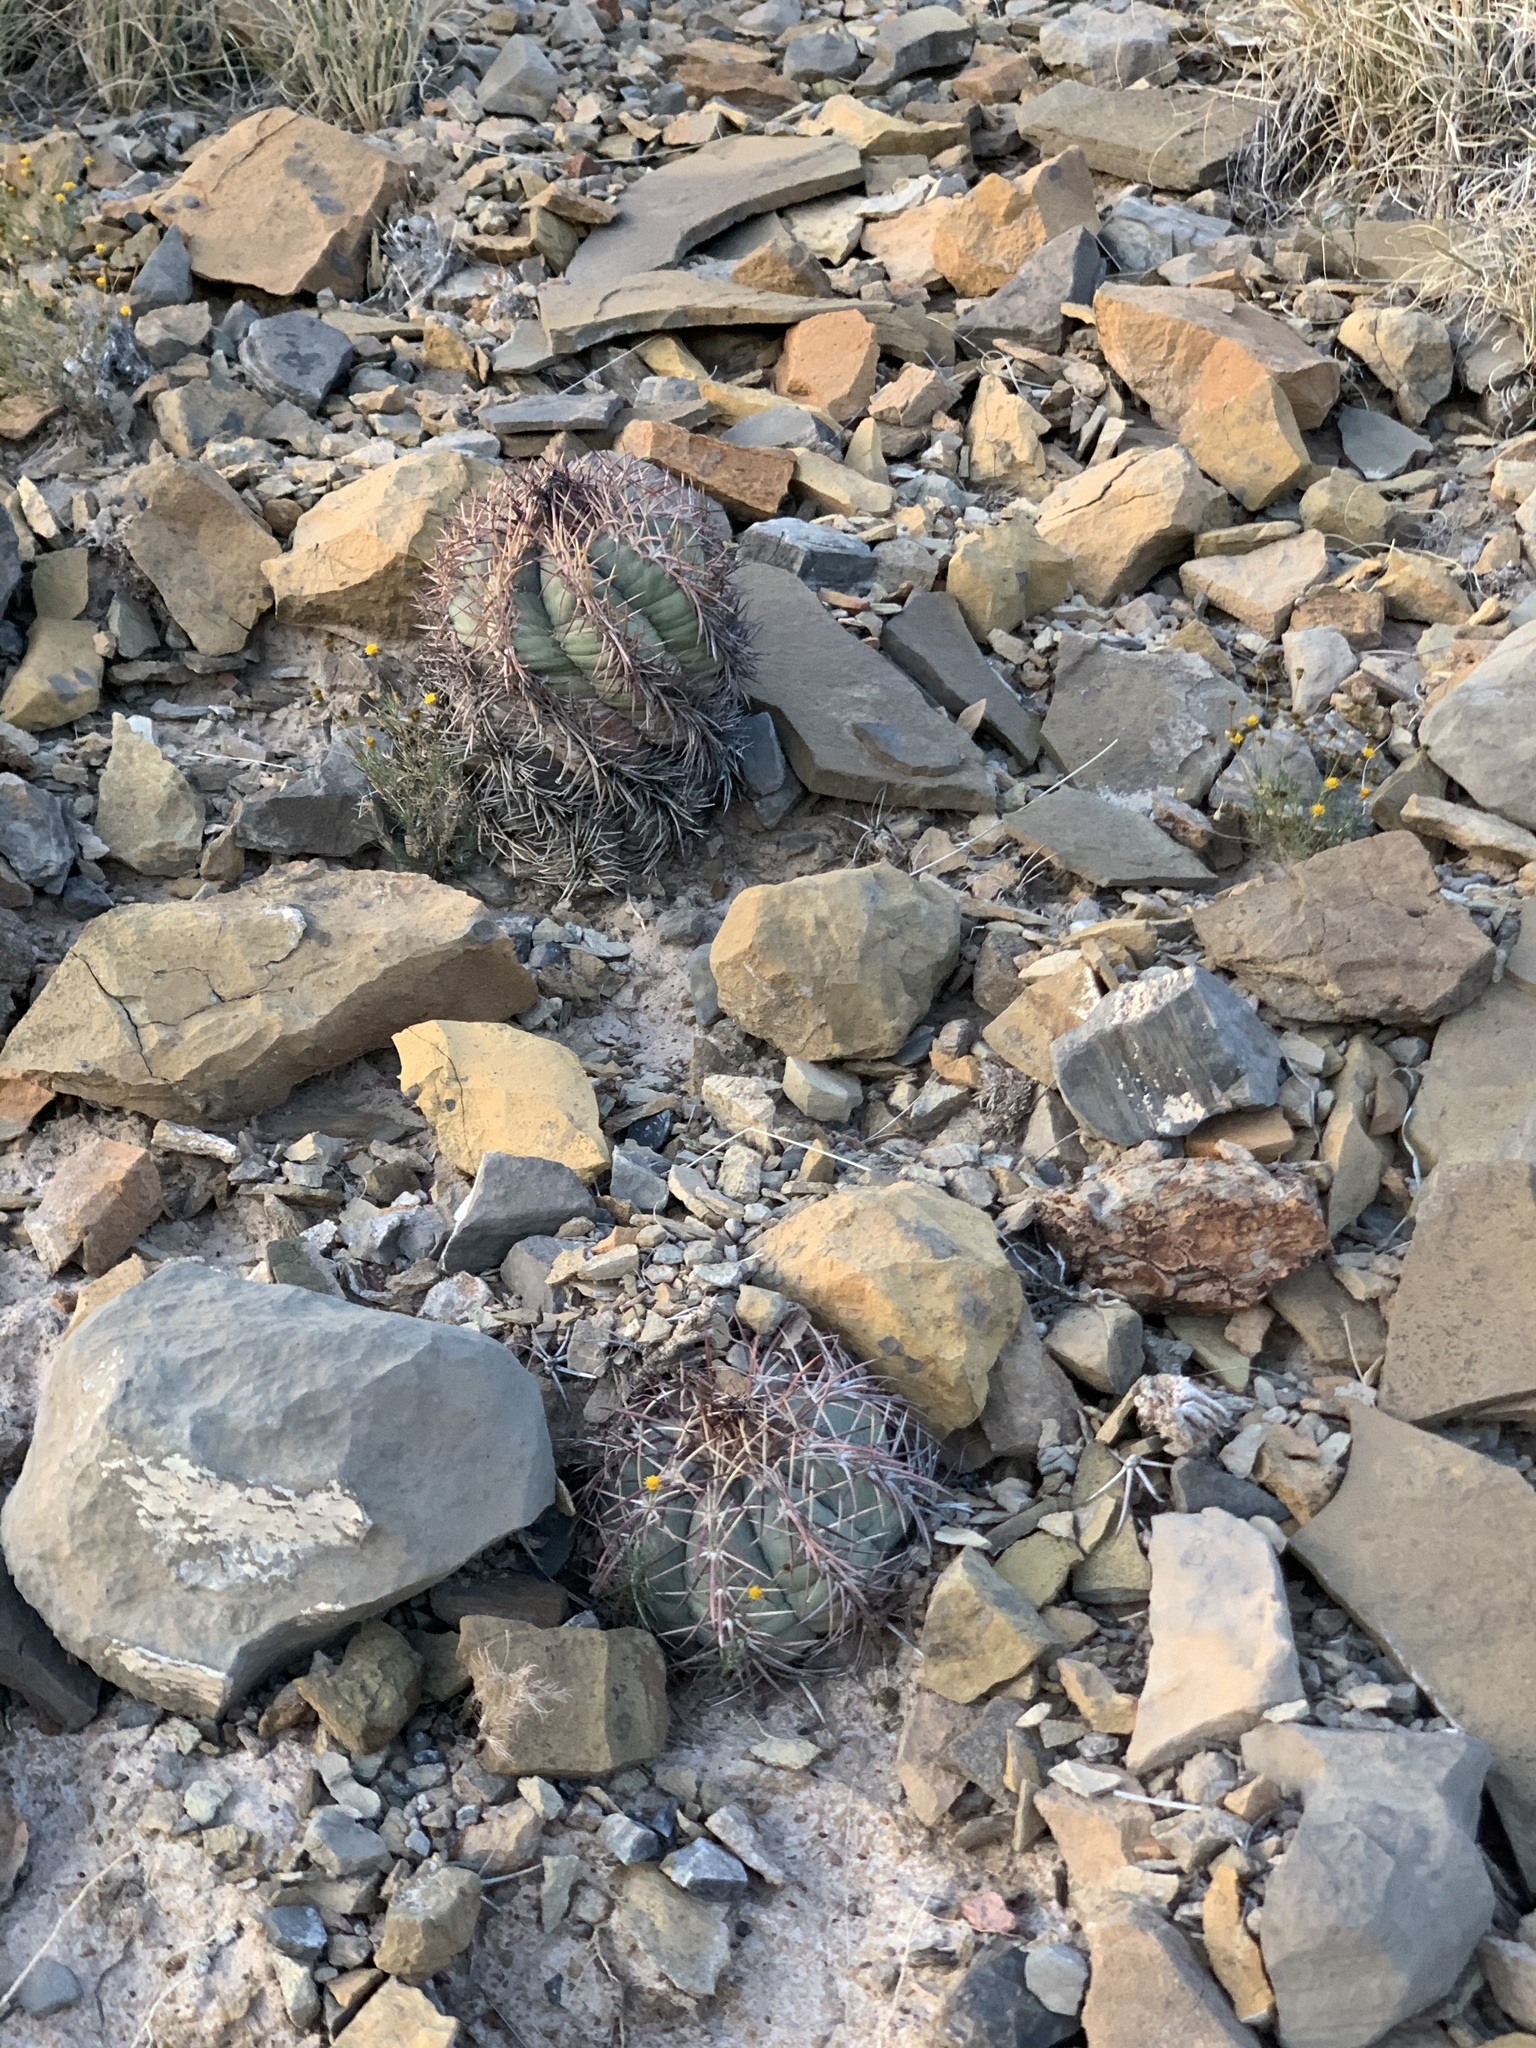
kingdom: Plantae
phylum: Tracheophyta
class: Magnoliopsida
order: Caryophyllales
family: Cactaceae
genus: Echinocactus
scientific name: Echinocactus horizonthalonius
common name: Devilshead
